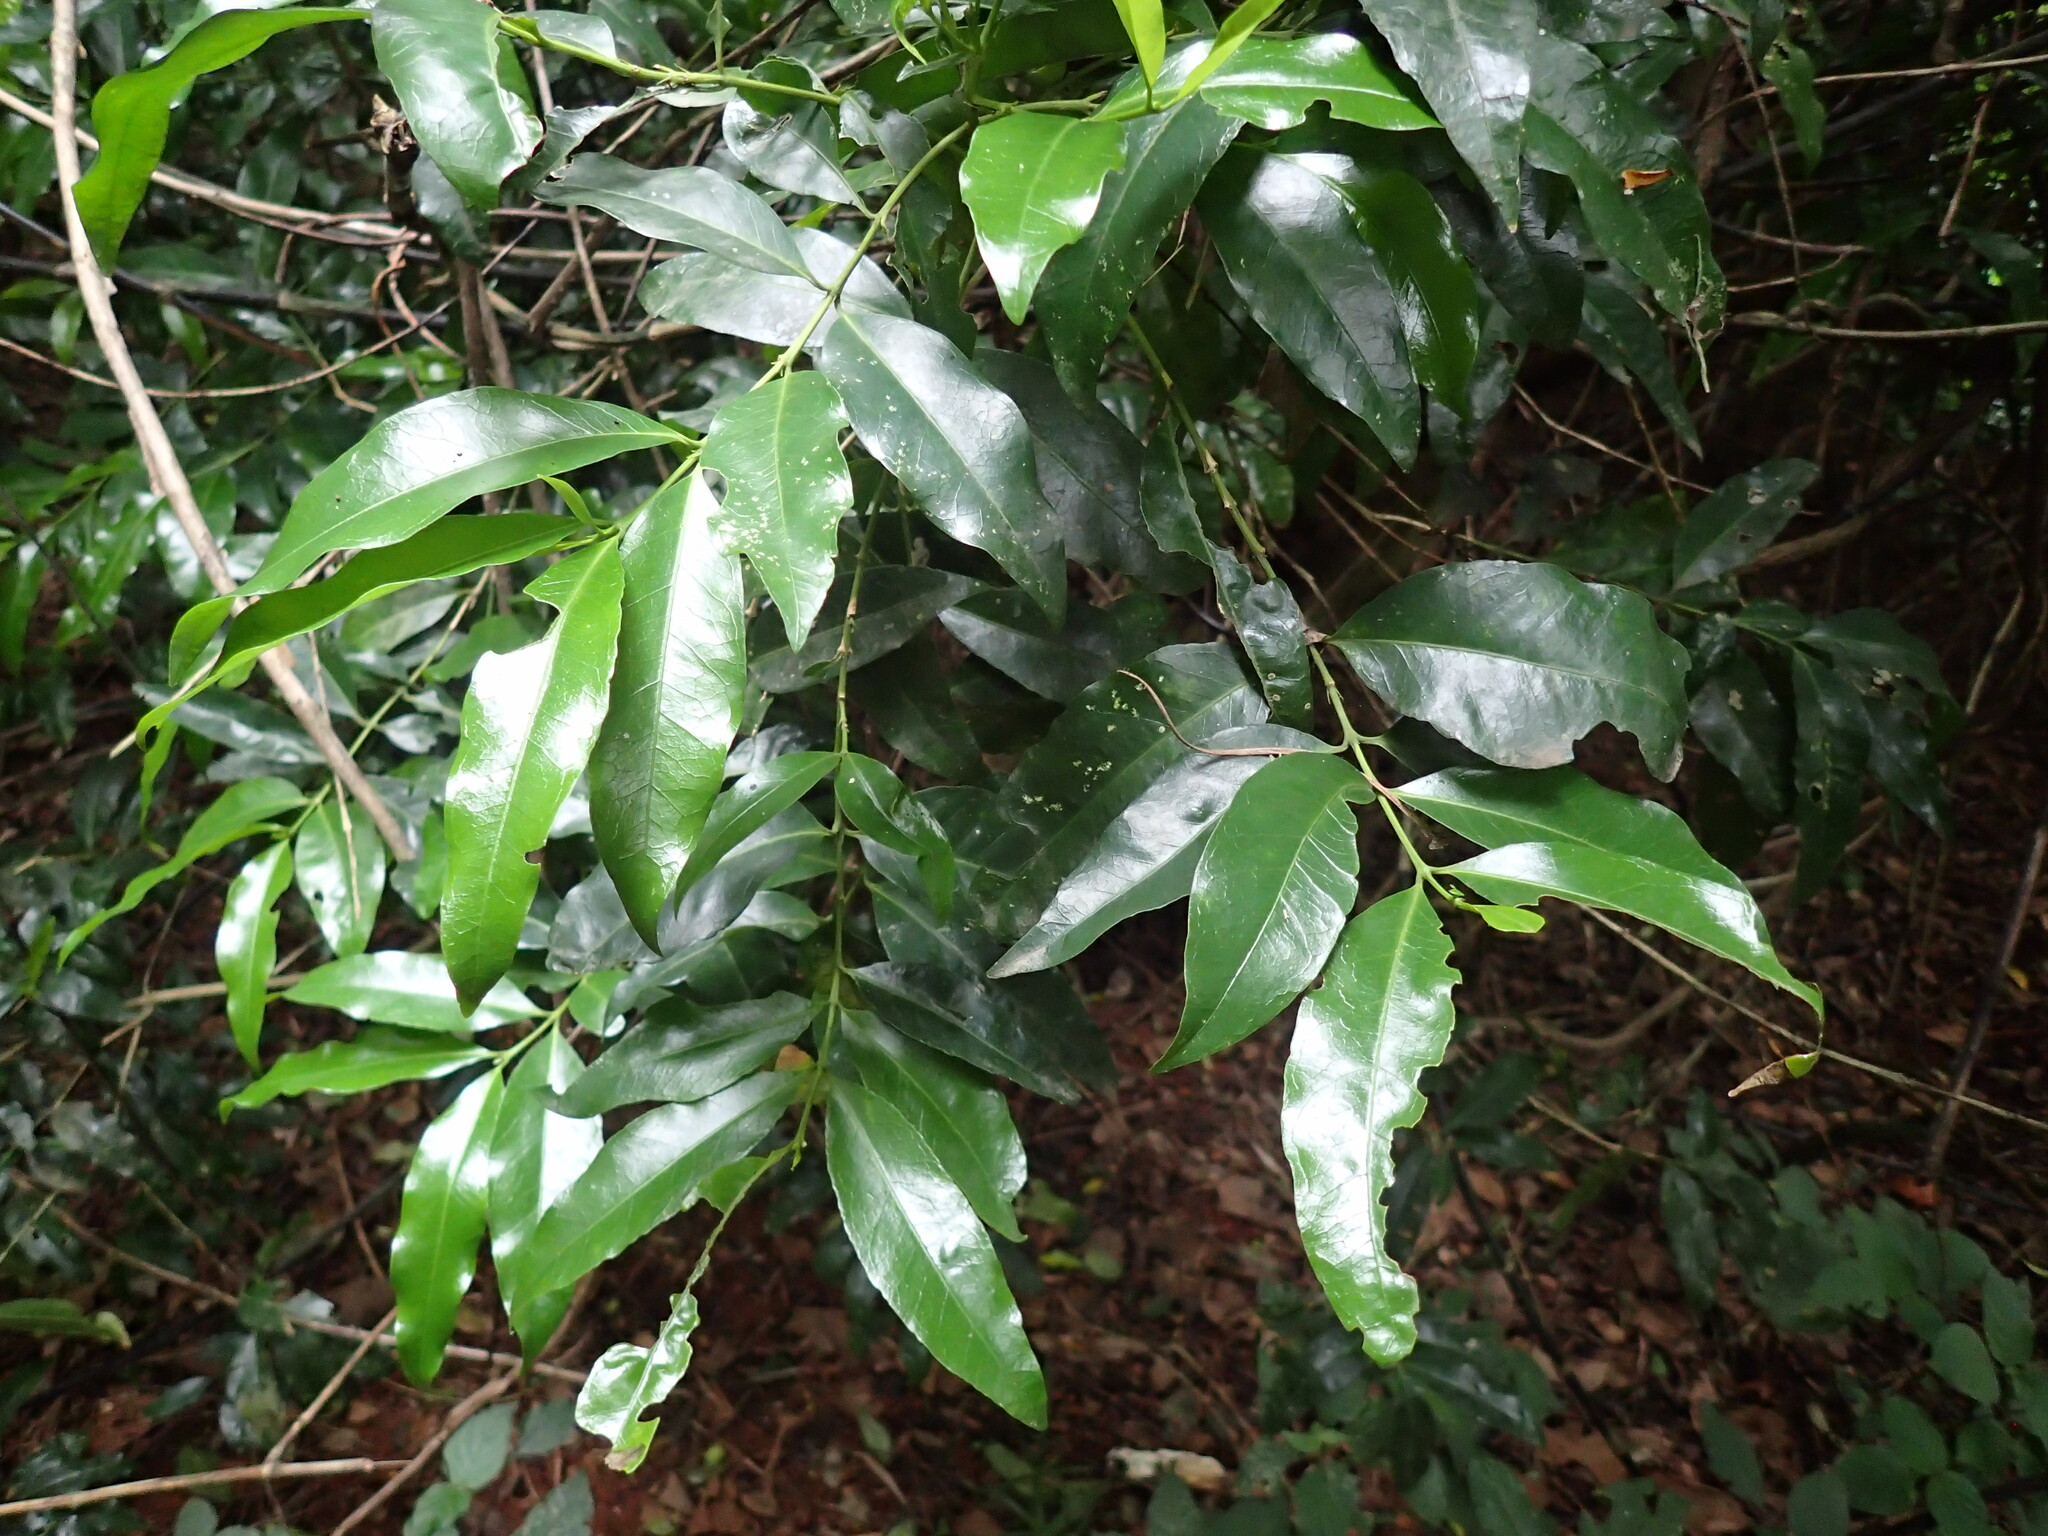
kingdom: Plantae
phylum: Tracheophyta
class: Magnoliopsida
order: Gentianales
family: Rubiaceae
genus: Empogona
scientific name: Empogona lanceolata
